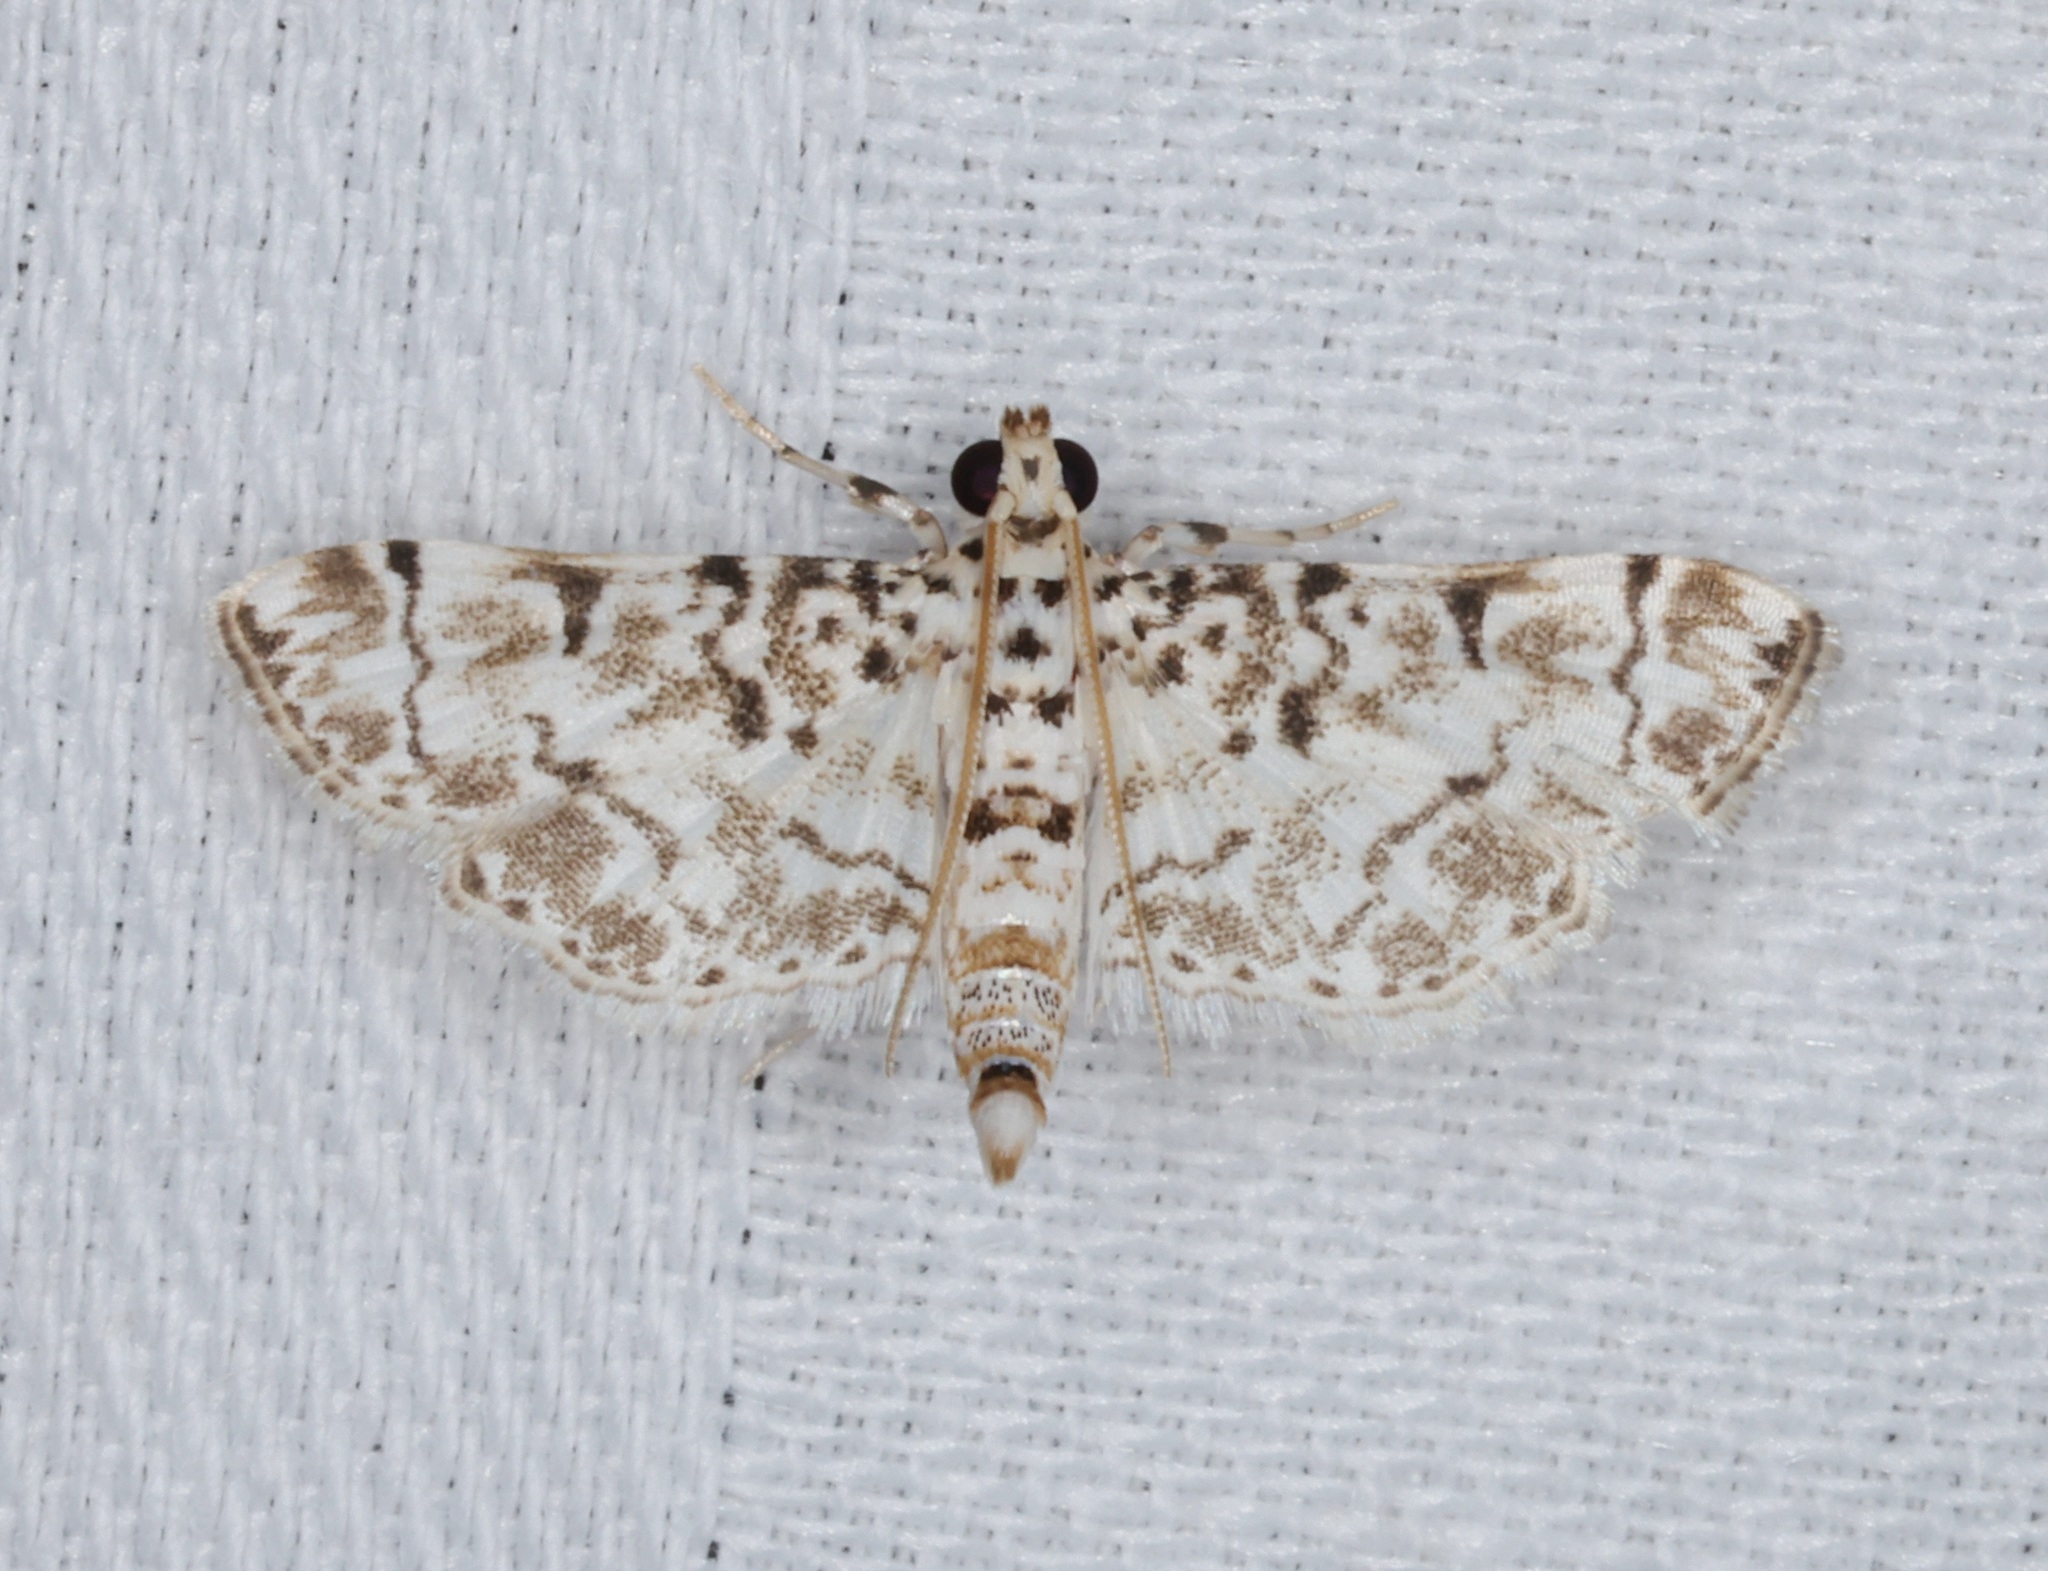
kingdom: Animalia
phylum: Arthropoda
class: Insecta
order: Lepidoptera
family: Crambidae
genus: Metoeca
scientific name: Metoeca foedalis
